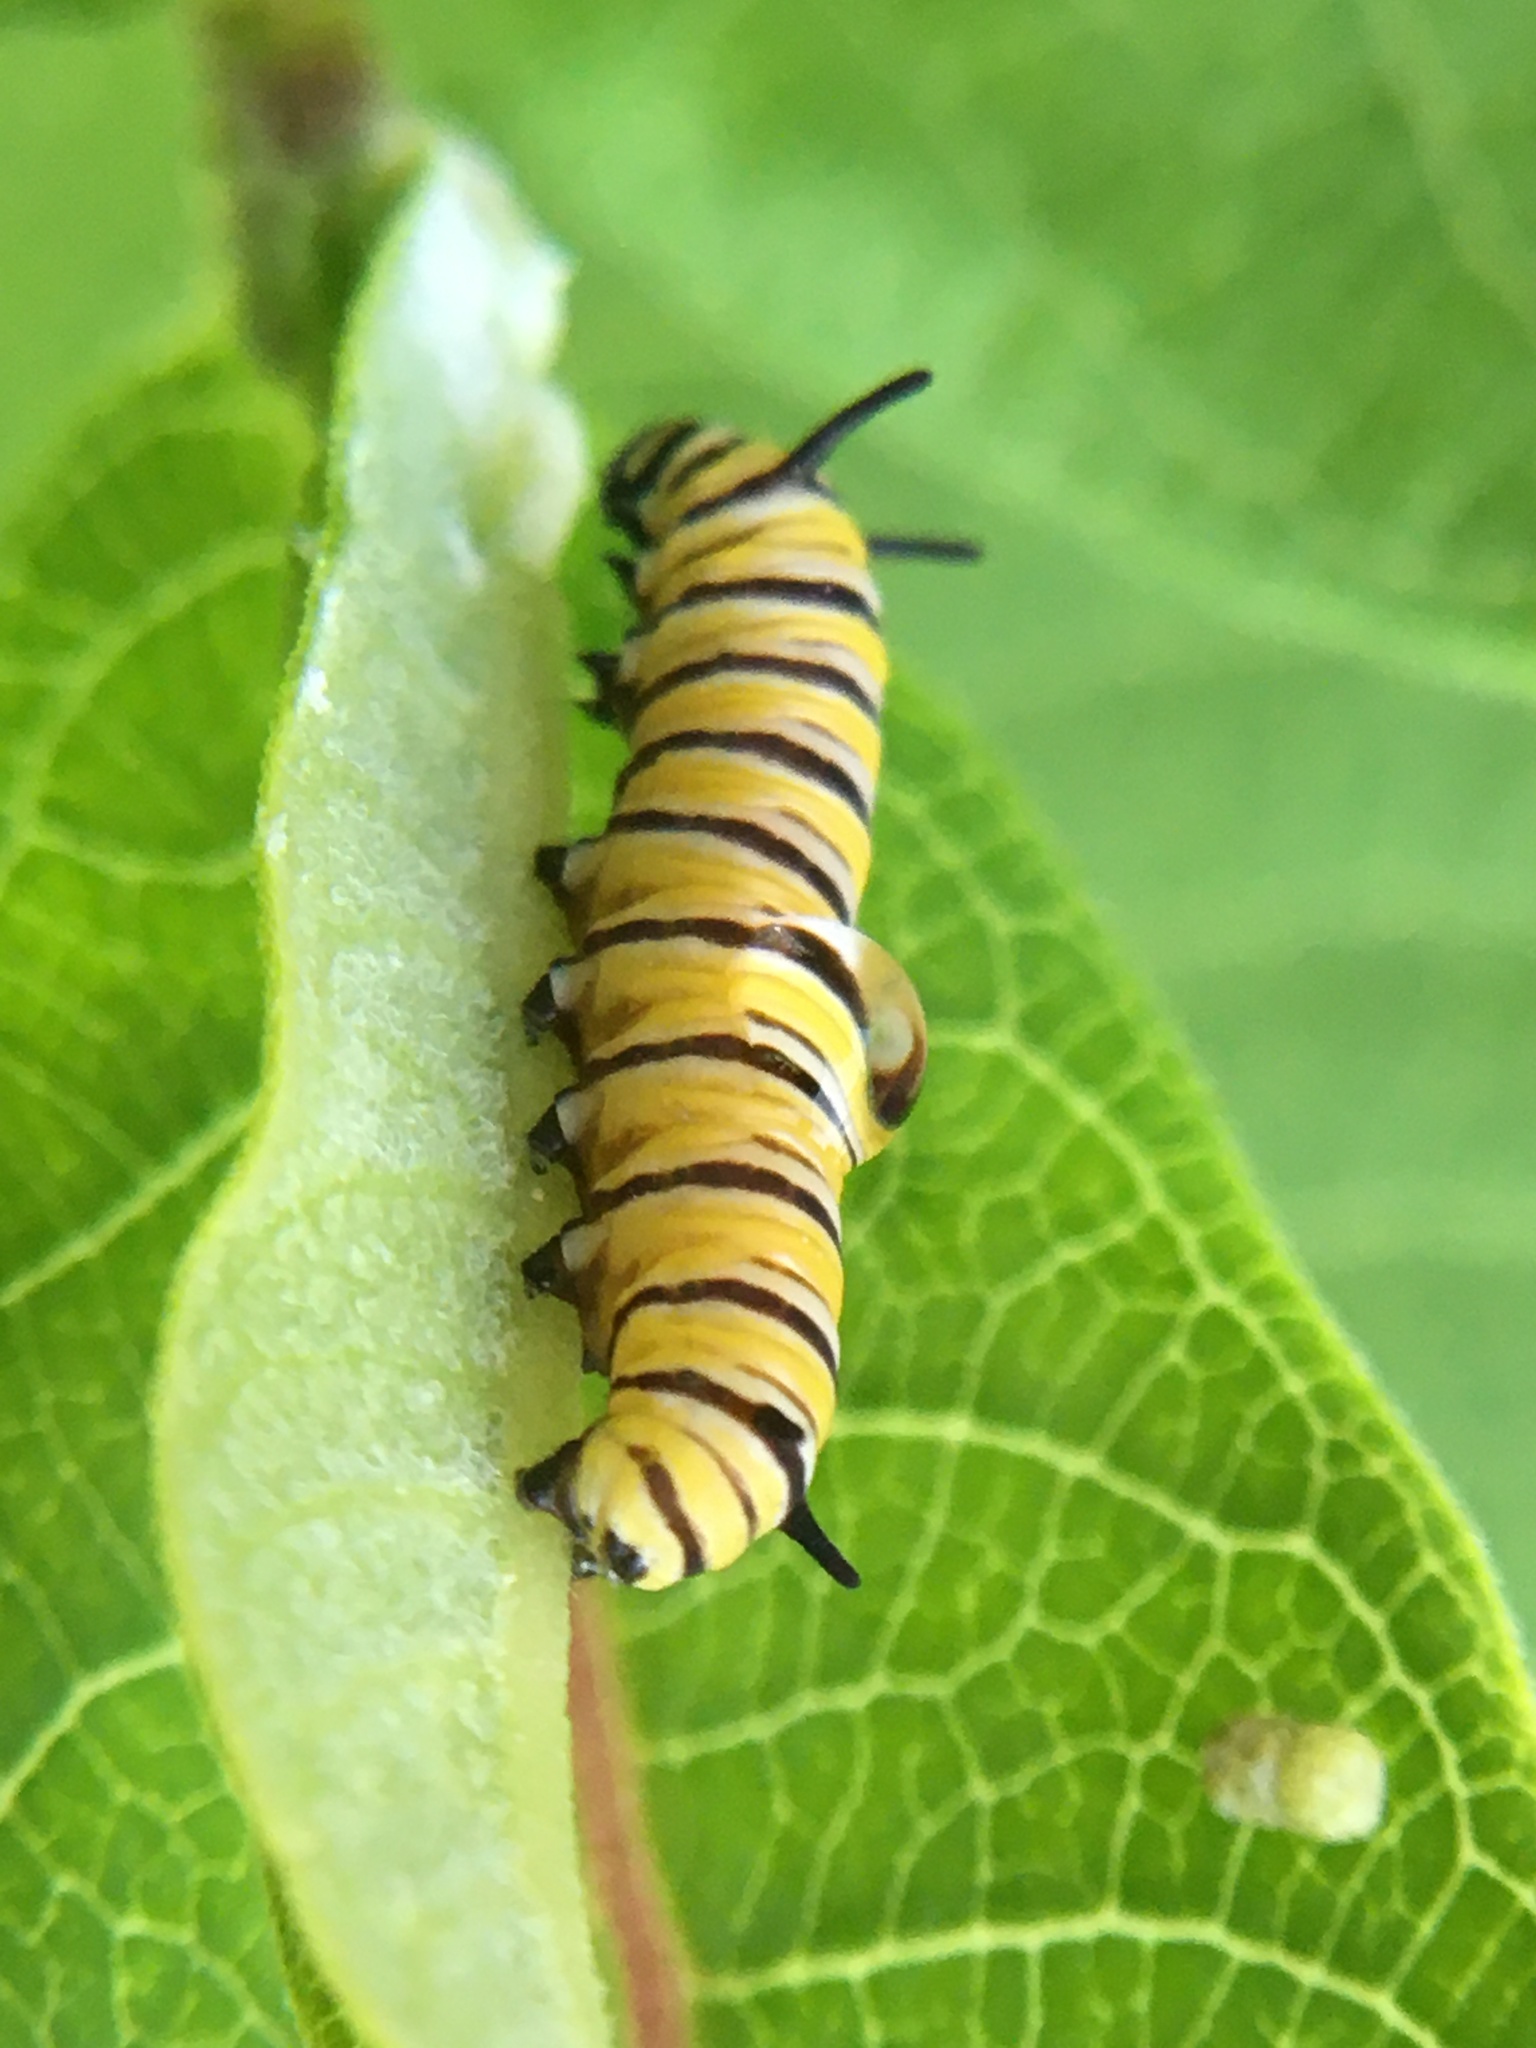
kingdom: Animalia
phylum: Arthropoda
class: Insecta
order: Lepidoptera
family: Nymphalidae
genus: Danaus
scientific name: Danaus plexippus
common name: Monarch
